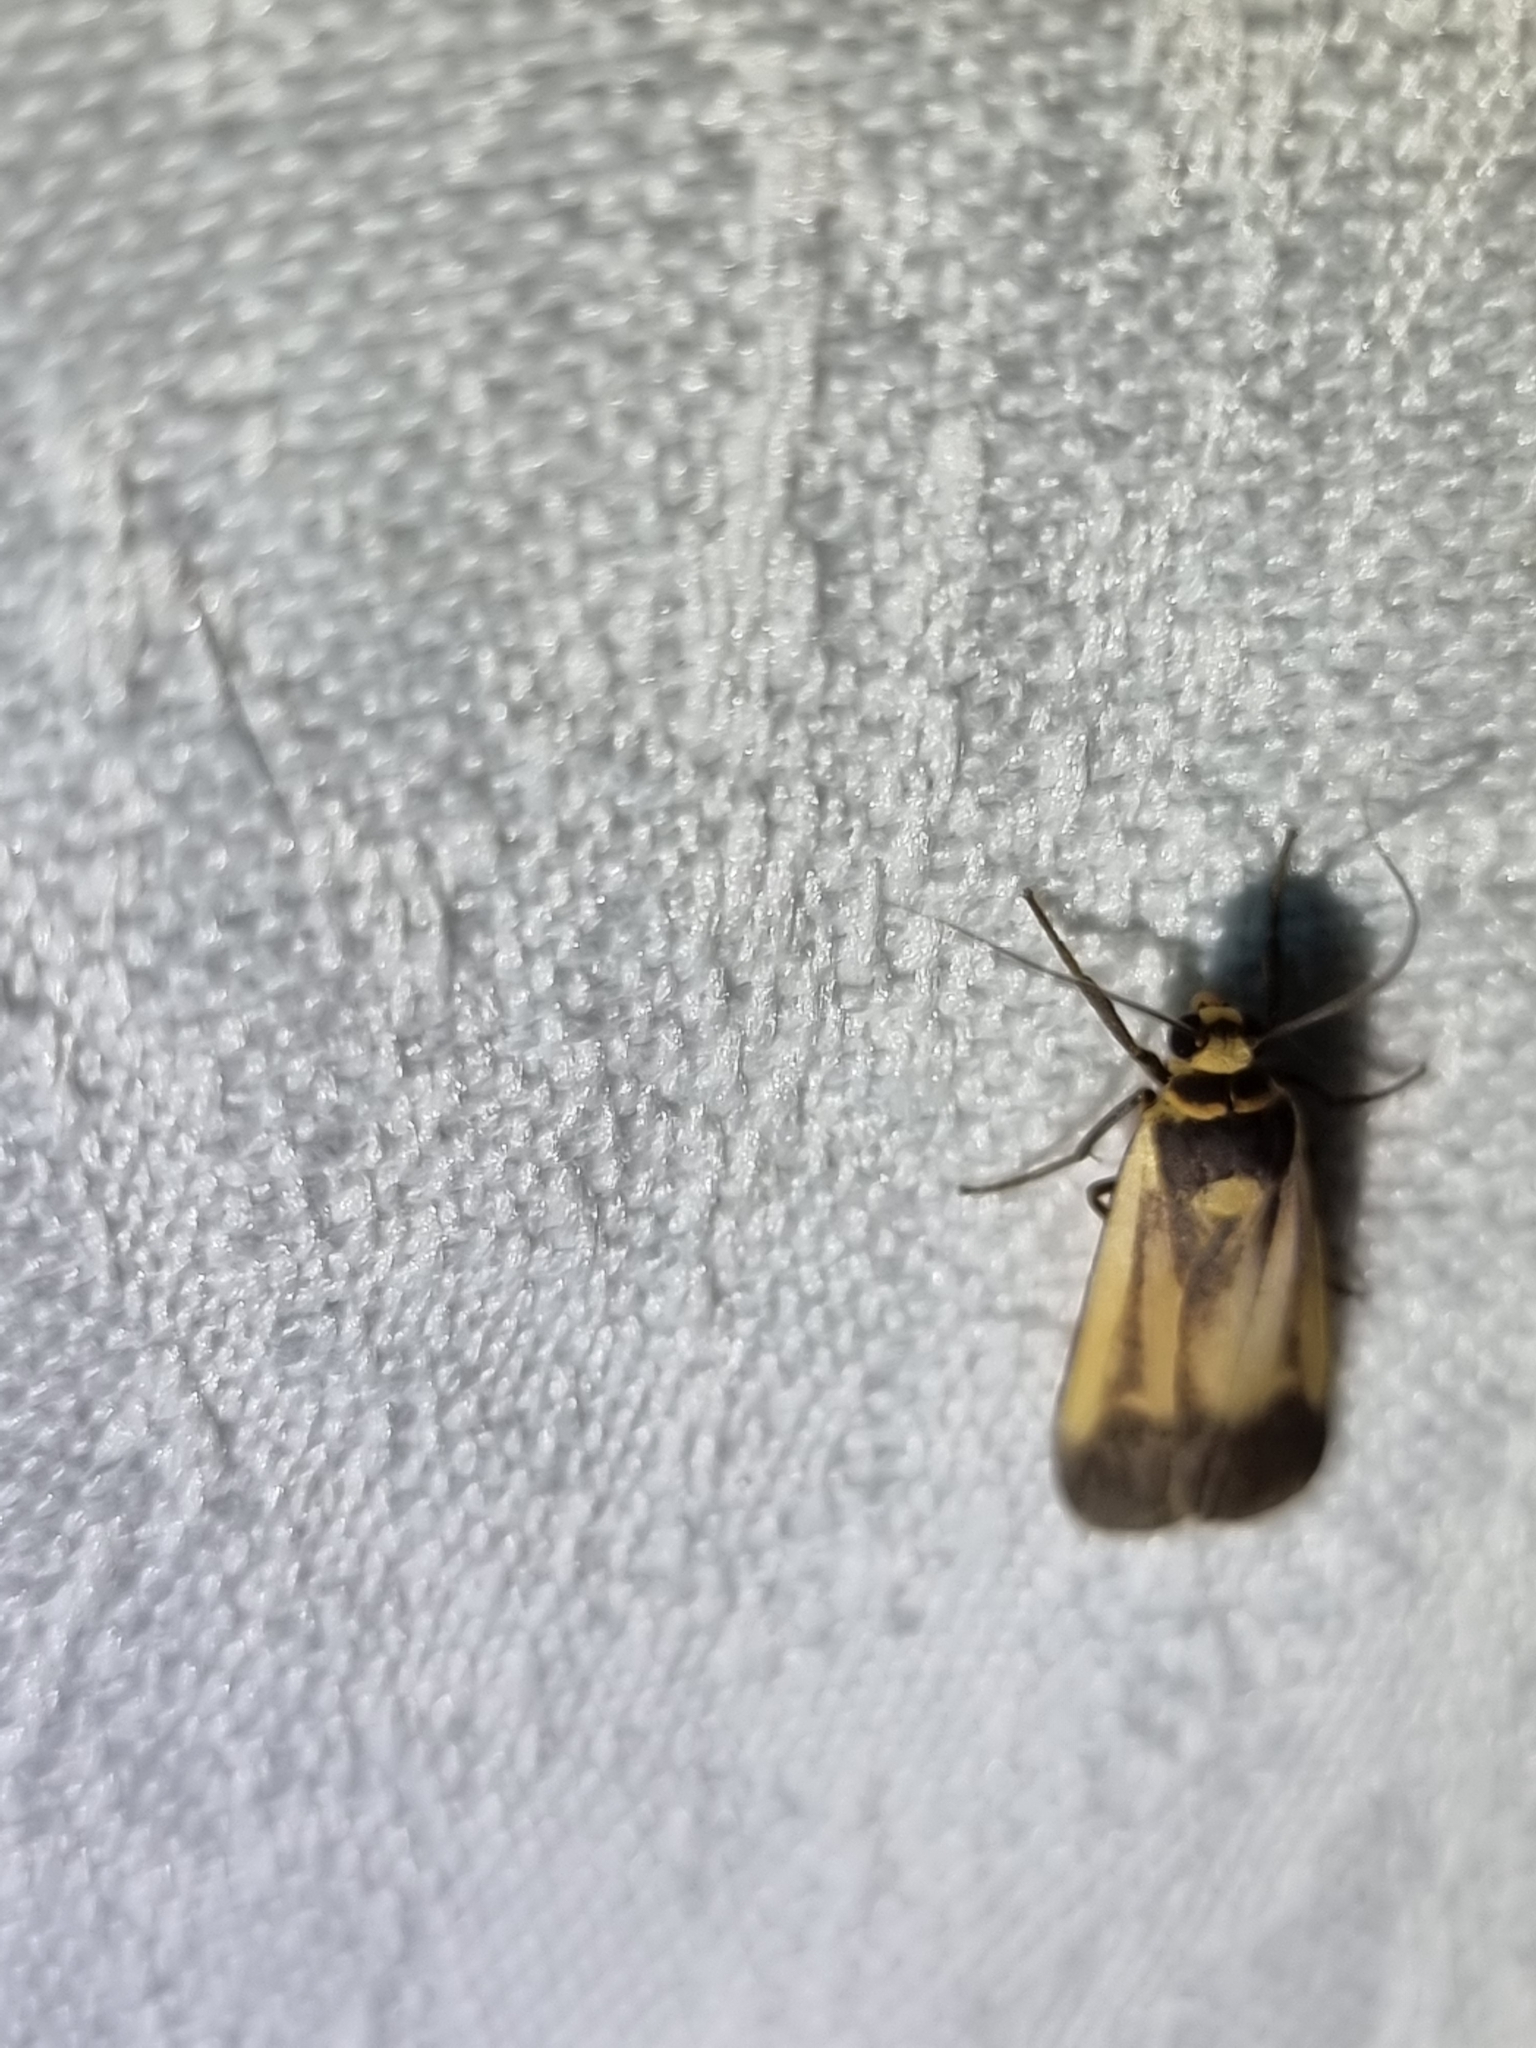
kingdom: Animalia
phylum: Arthropoda
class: Insecta
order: Lepidoptera
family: Erebidae
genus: Brunia
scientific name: Brunia replana
